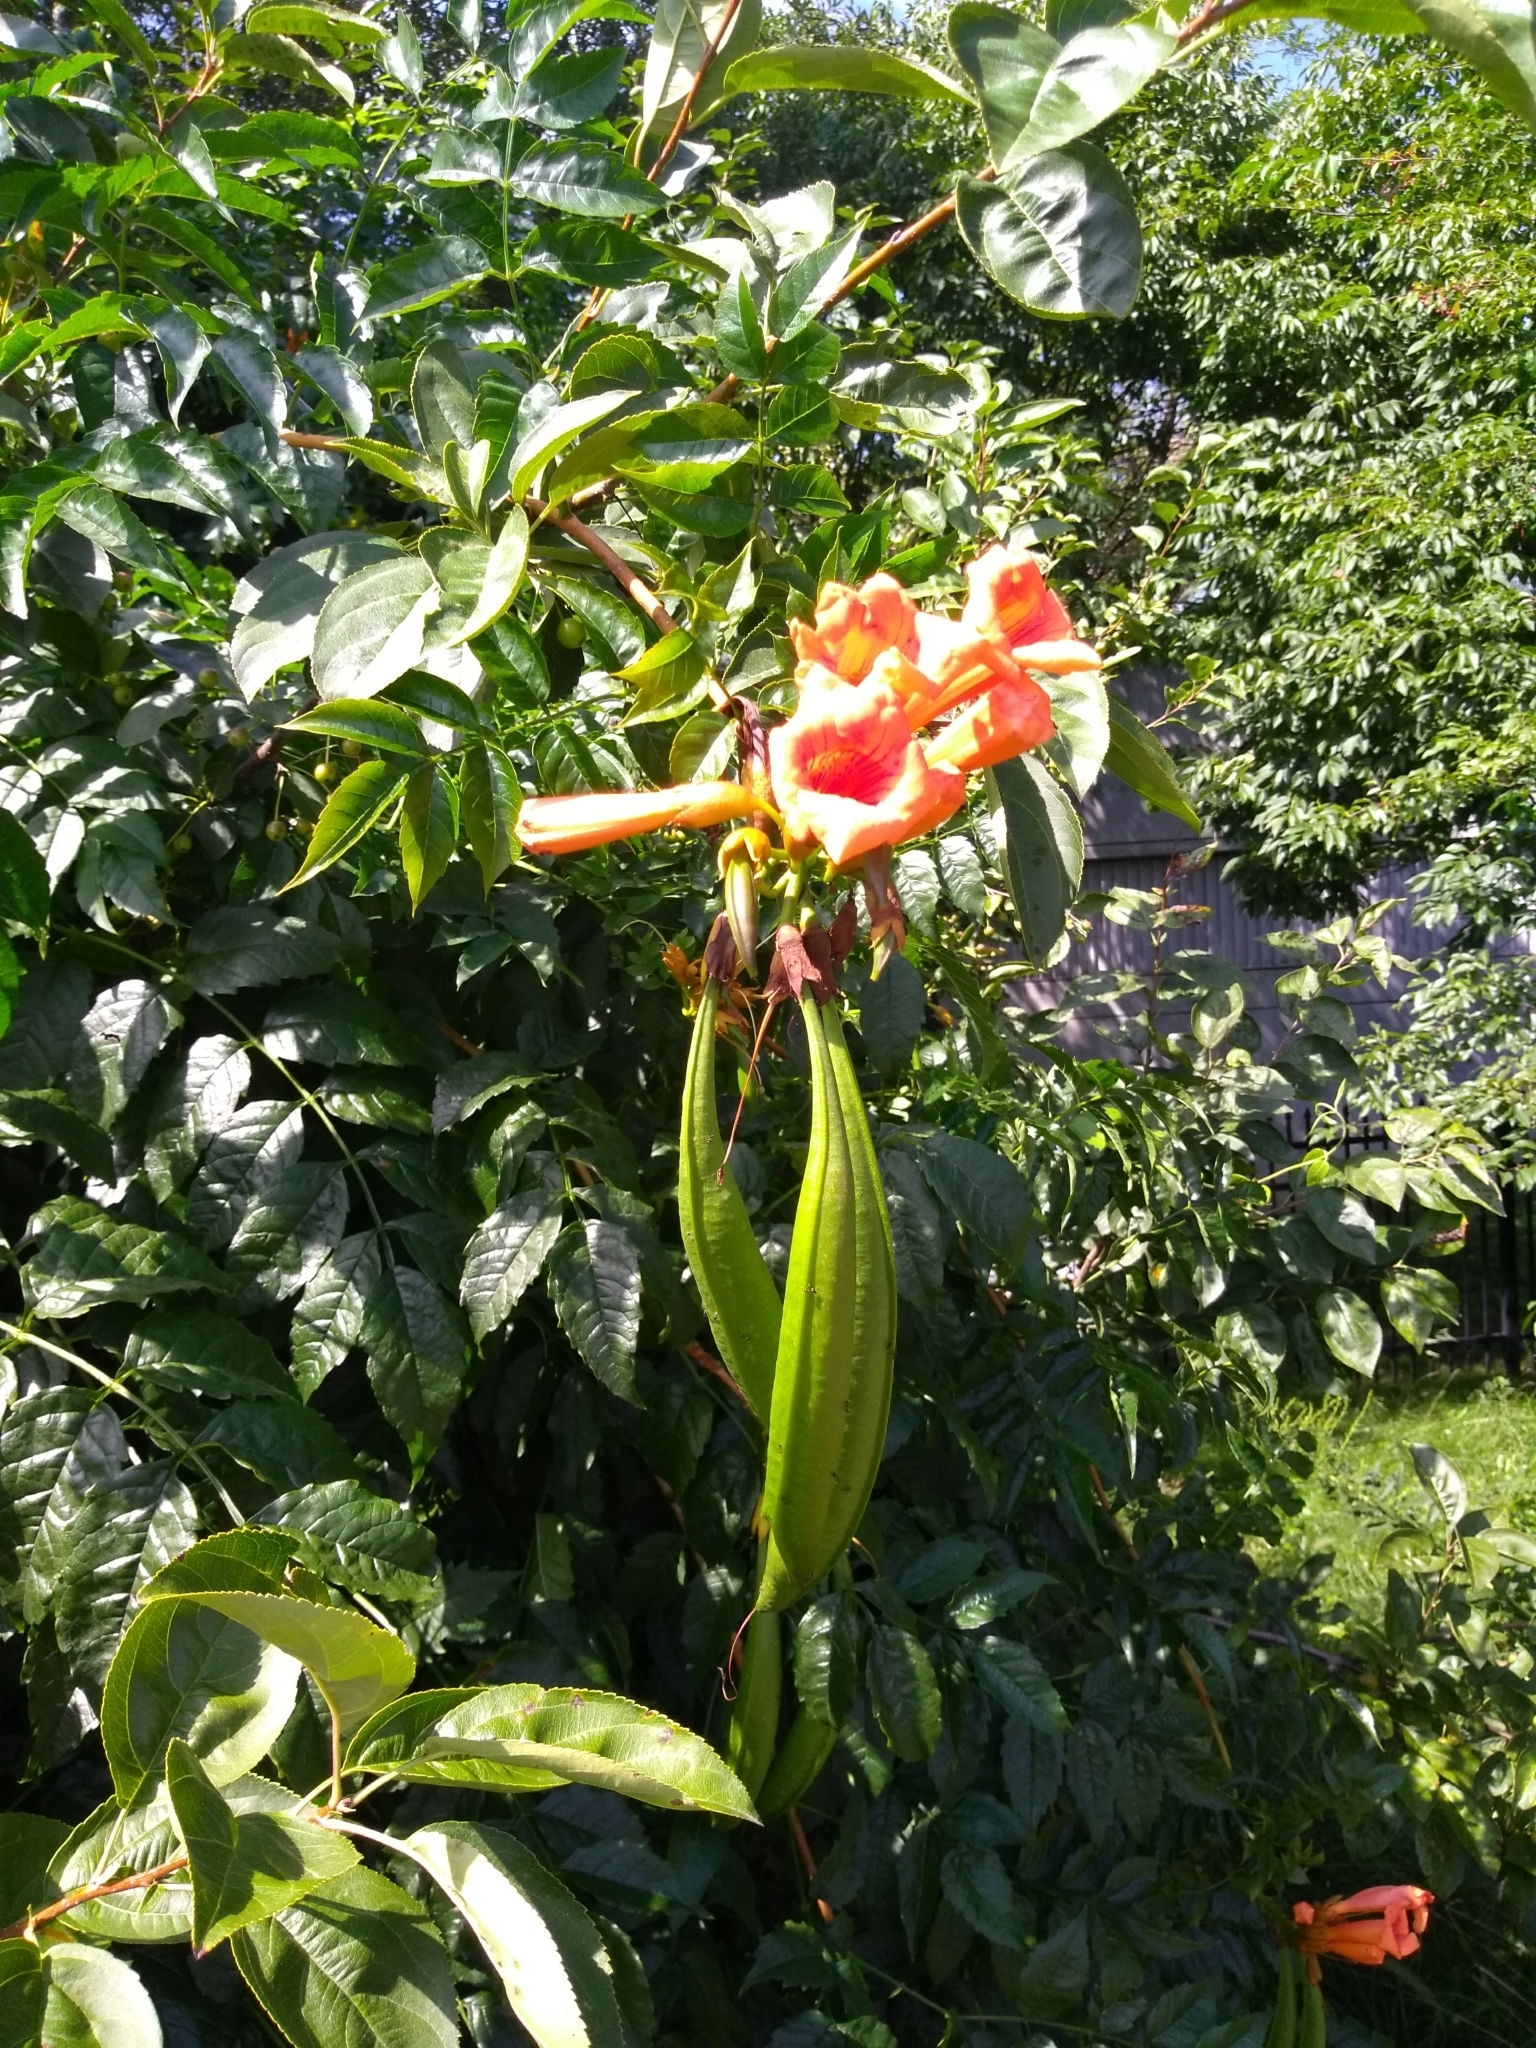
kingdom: Plantae
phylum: Tracheophyta
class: Magnoliopsida
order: Lamiales
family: Bignoniaceae
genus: Campsis
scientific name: Campsis radicans
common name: Trumpet-creeper
